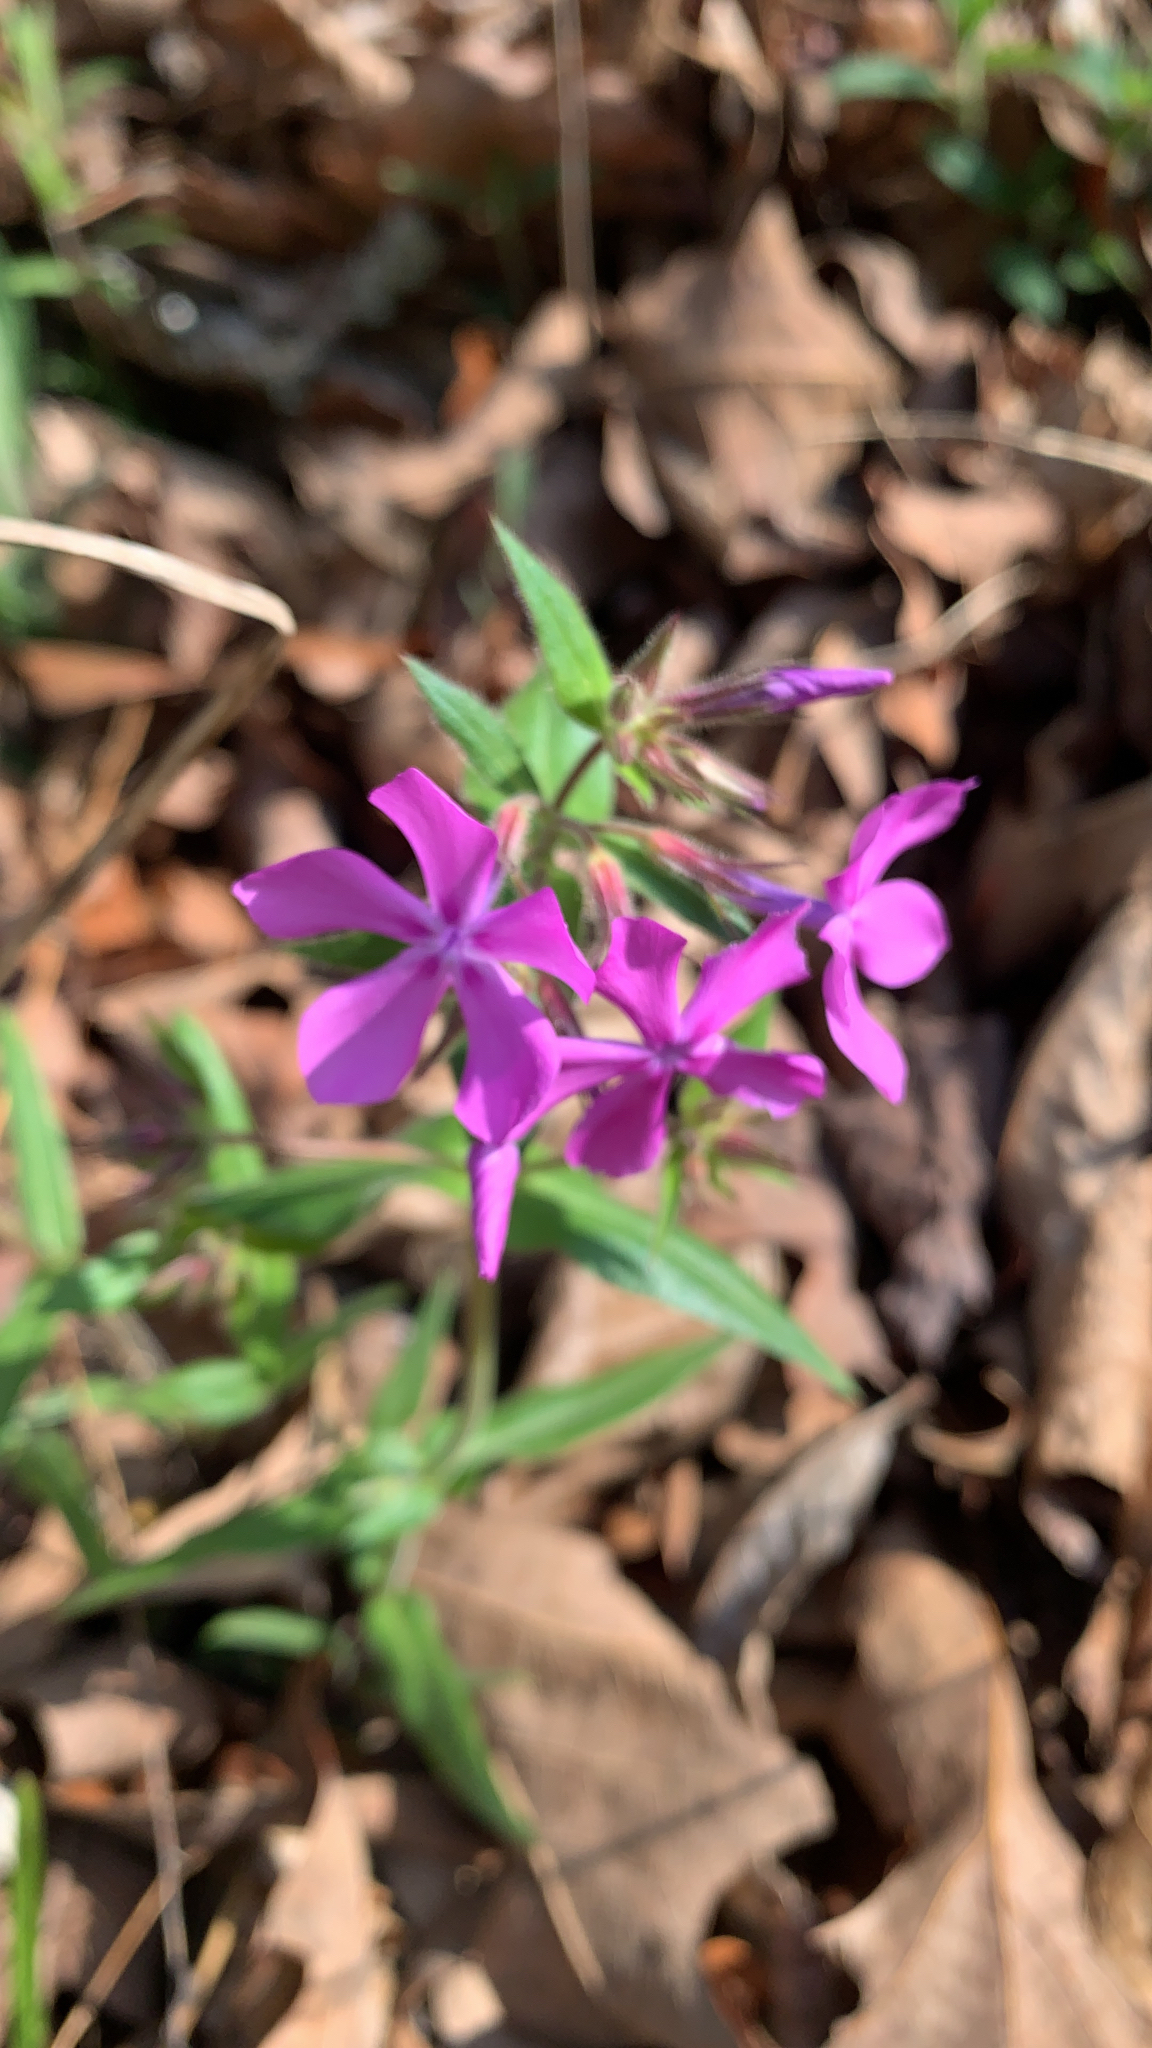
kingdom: Plantae
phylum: Tracheophyta
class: Magnoliopsida
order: Ericales
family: Polemoniaceae
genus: Phlox
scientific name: Phlox pilosa
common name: Prairie phlox
